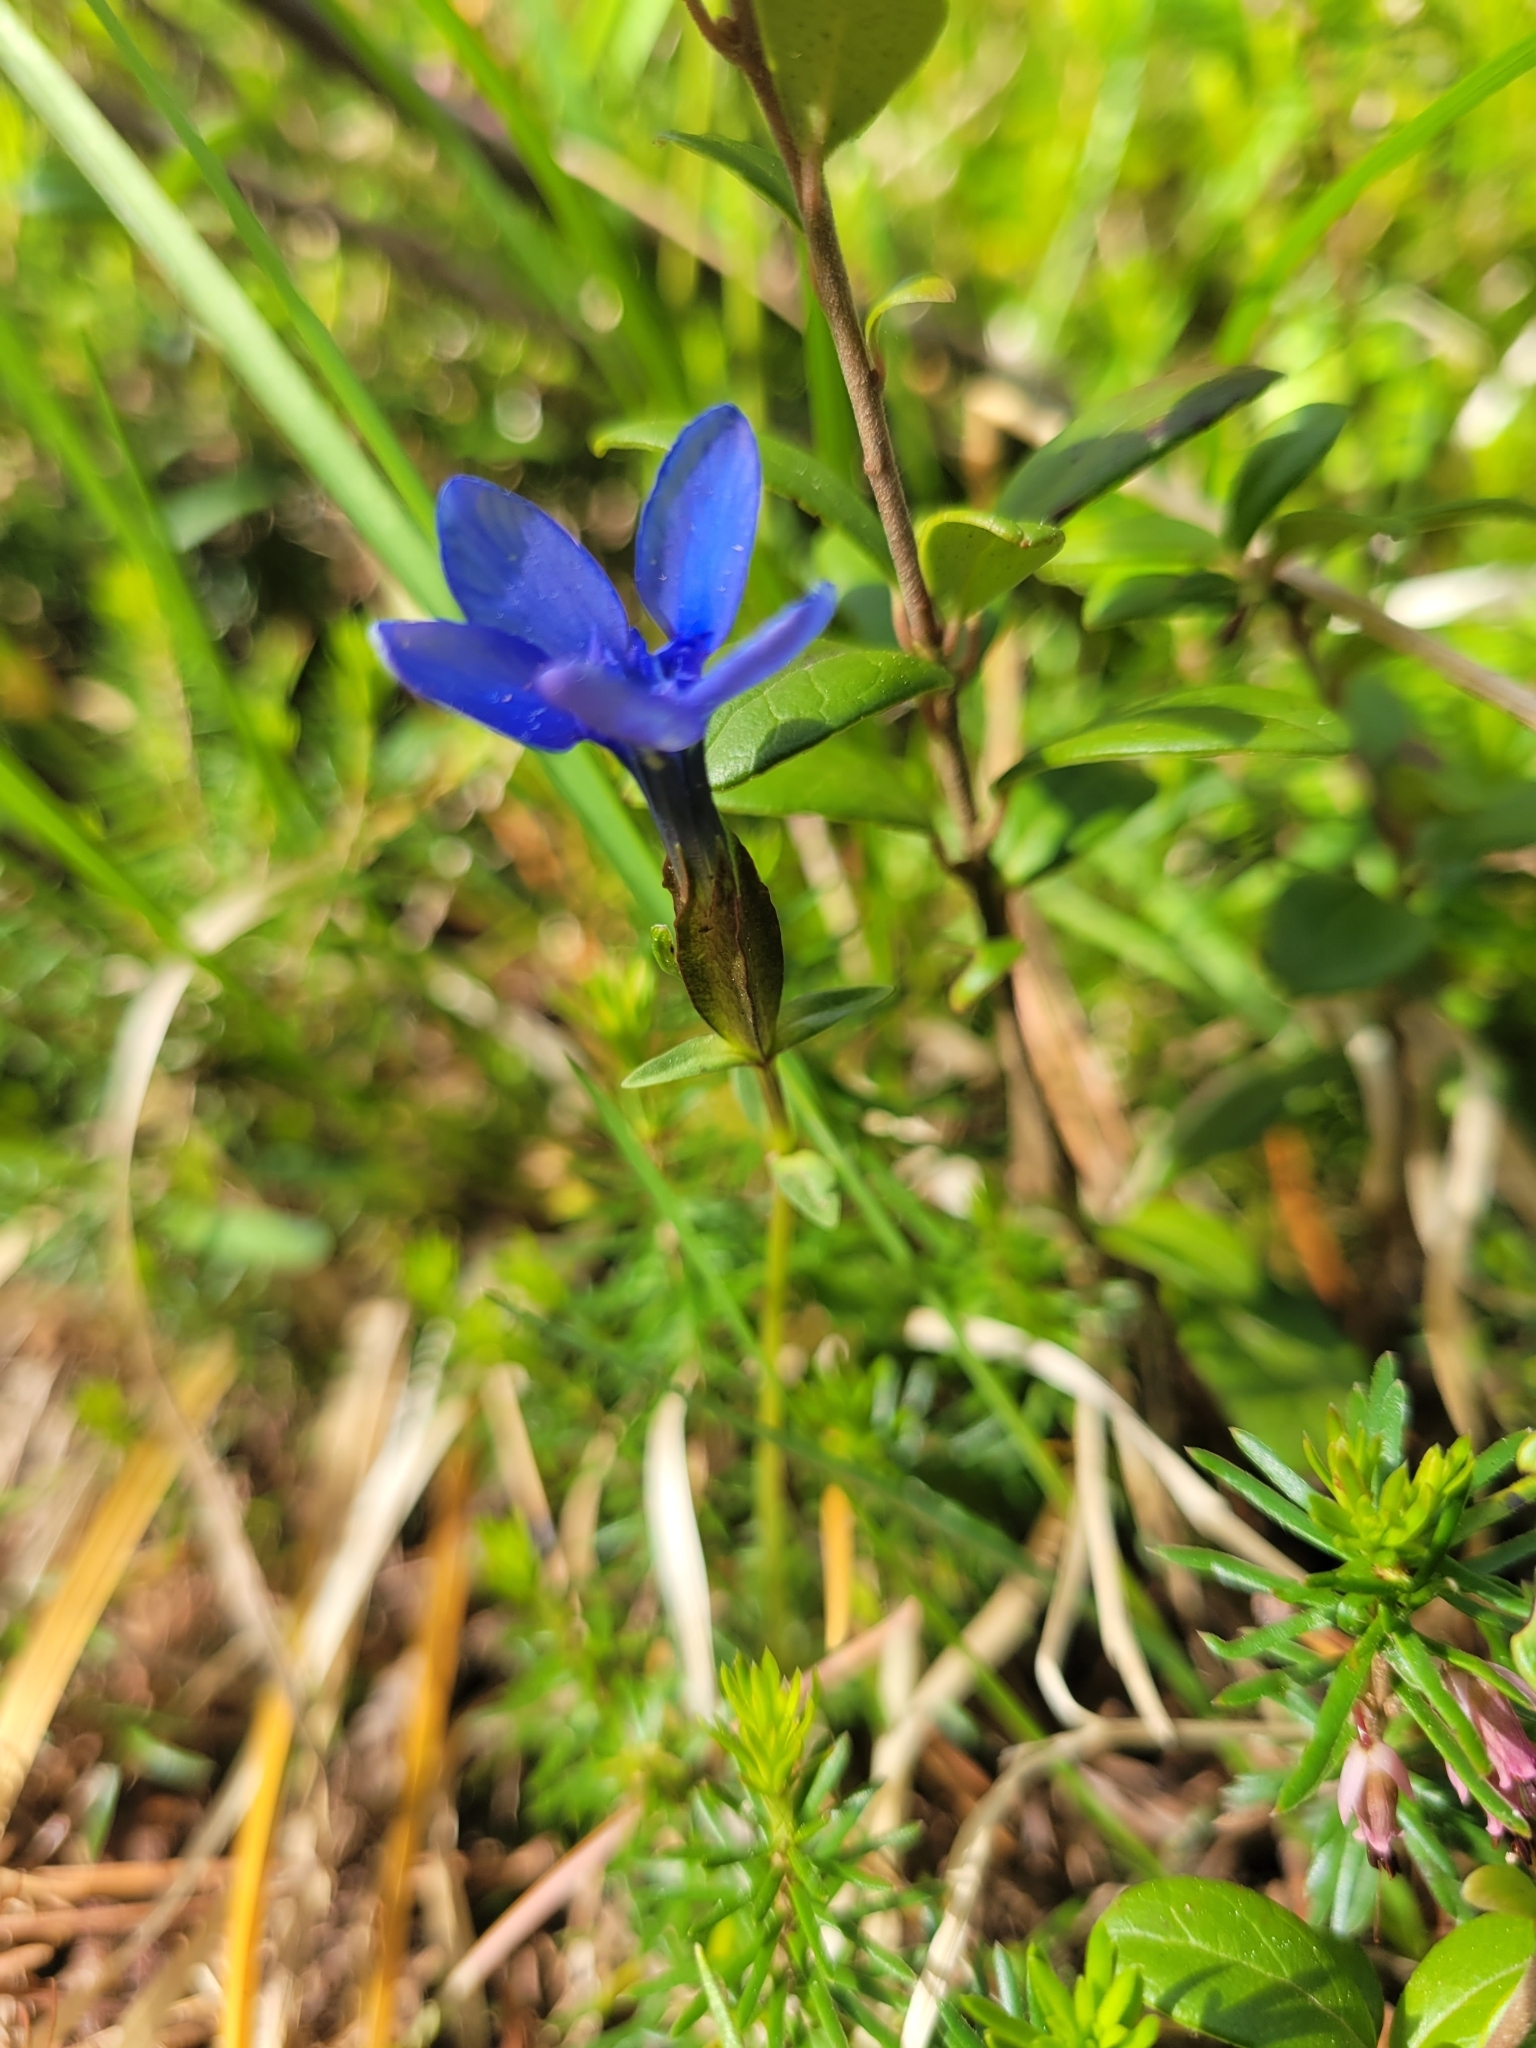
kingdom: Plantae
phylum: Tracheophyta
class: Magnoliopsida
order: Gentianales
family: Gentianaceae
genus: Gentiana
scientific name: Gentiana verna
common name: Spring gentian
